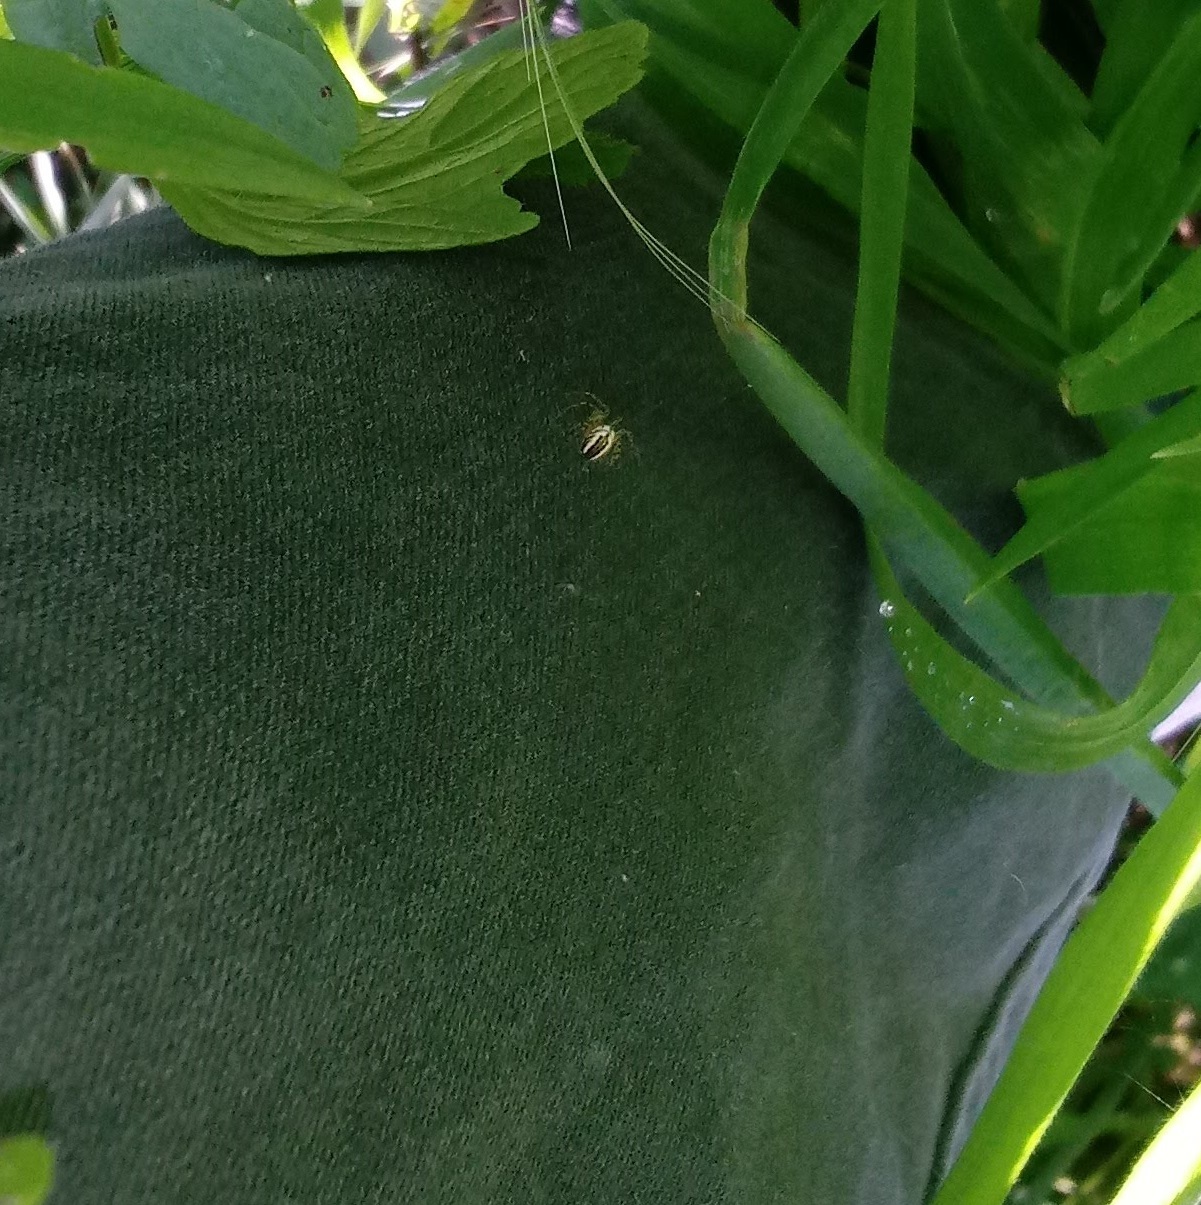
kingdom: Animalia
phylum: Arthropoda
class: Arachnida
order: Araneae
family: Araneidae
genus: Mangora
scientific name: Mangora acalypha
